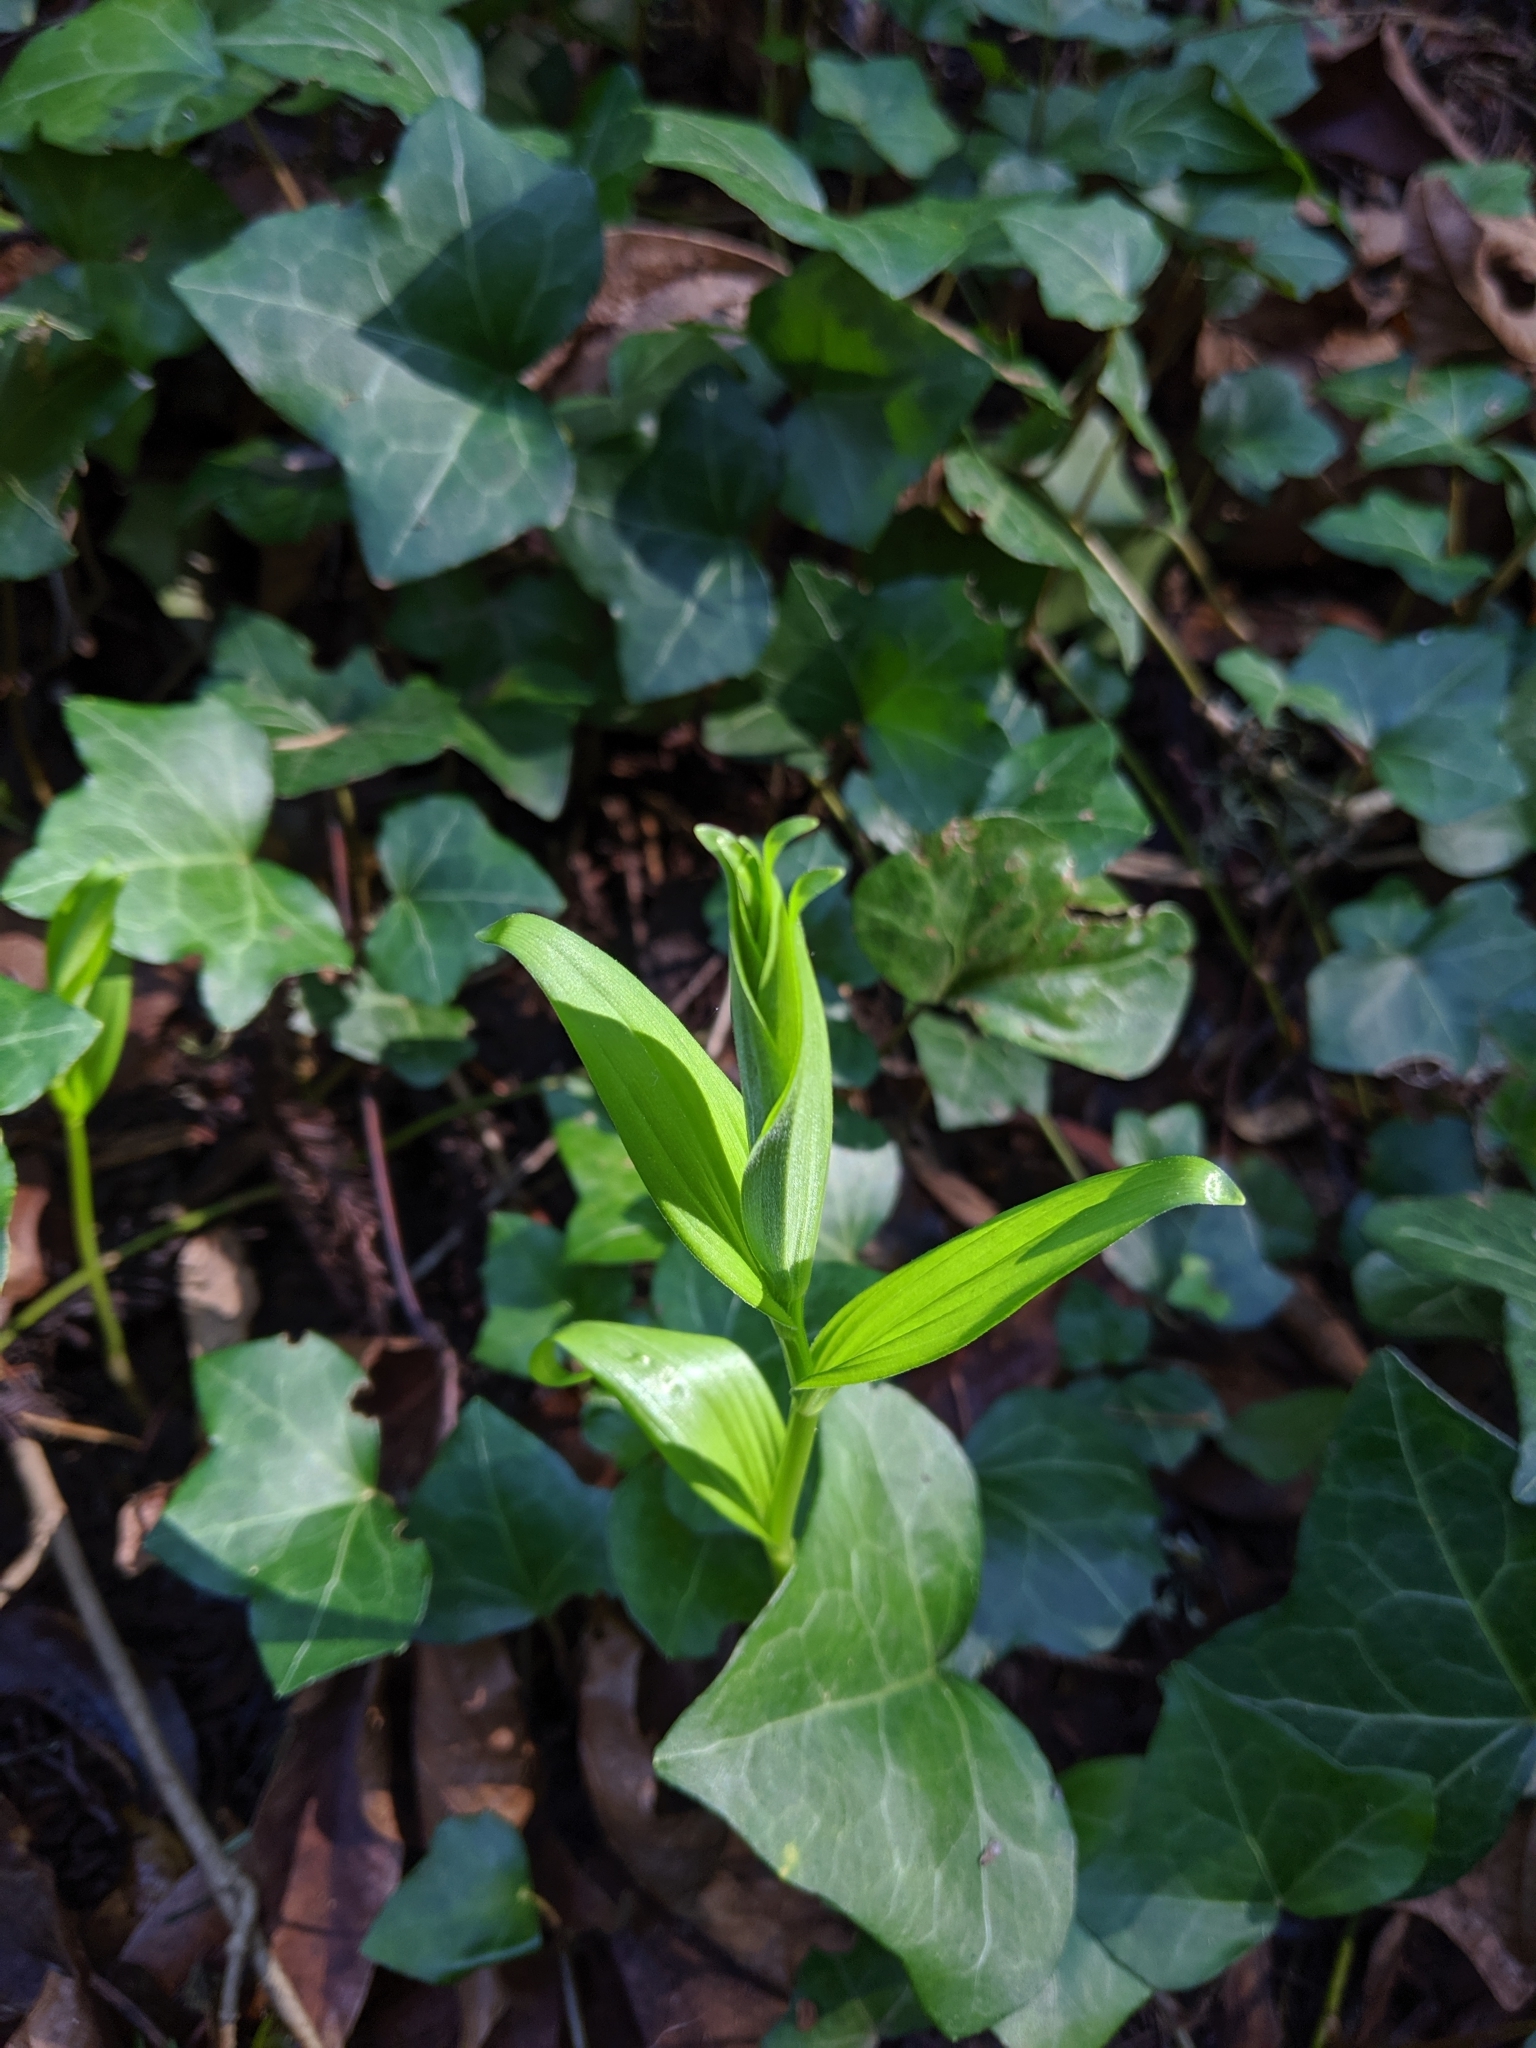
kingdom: Plantae
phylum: Tracheophyta
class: Liliopsida
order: Asparagales
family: Asparagaceae
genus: Maianthemum
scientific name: Maianthemum stellatum
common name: Little false solomon's seal
